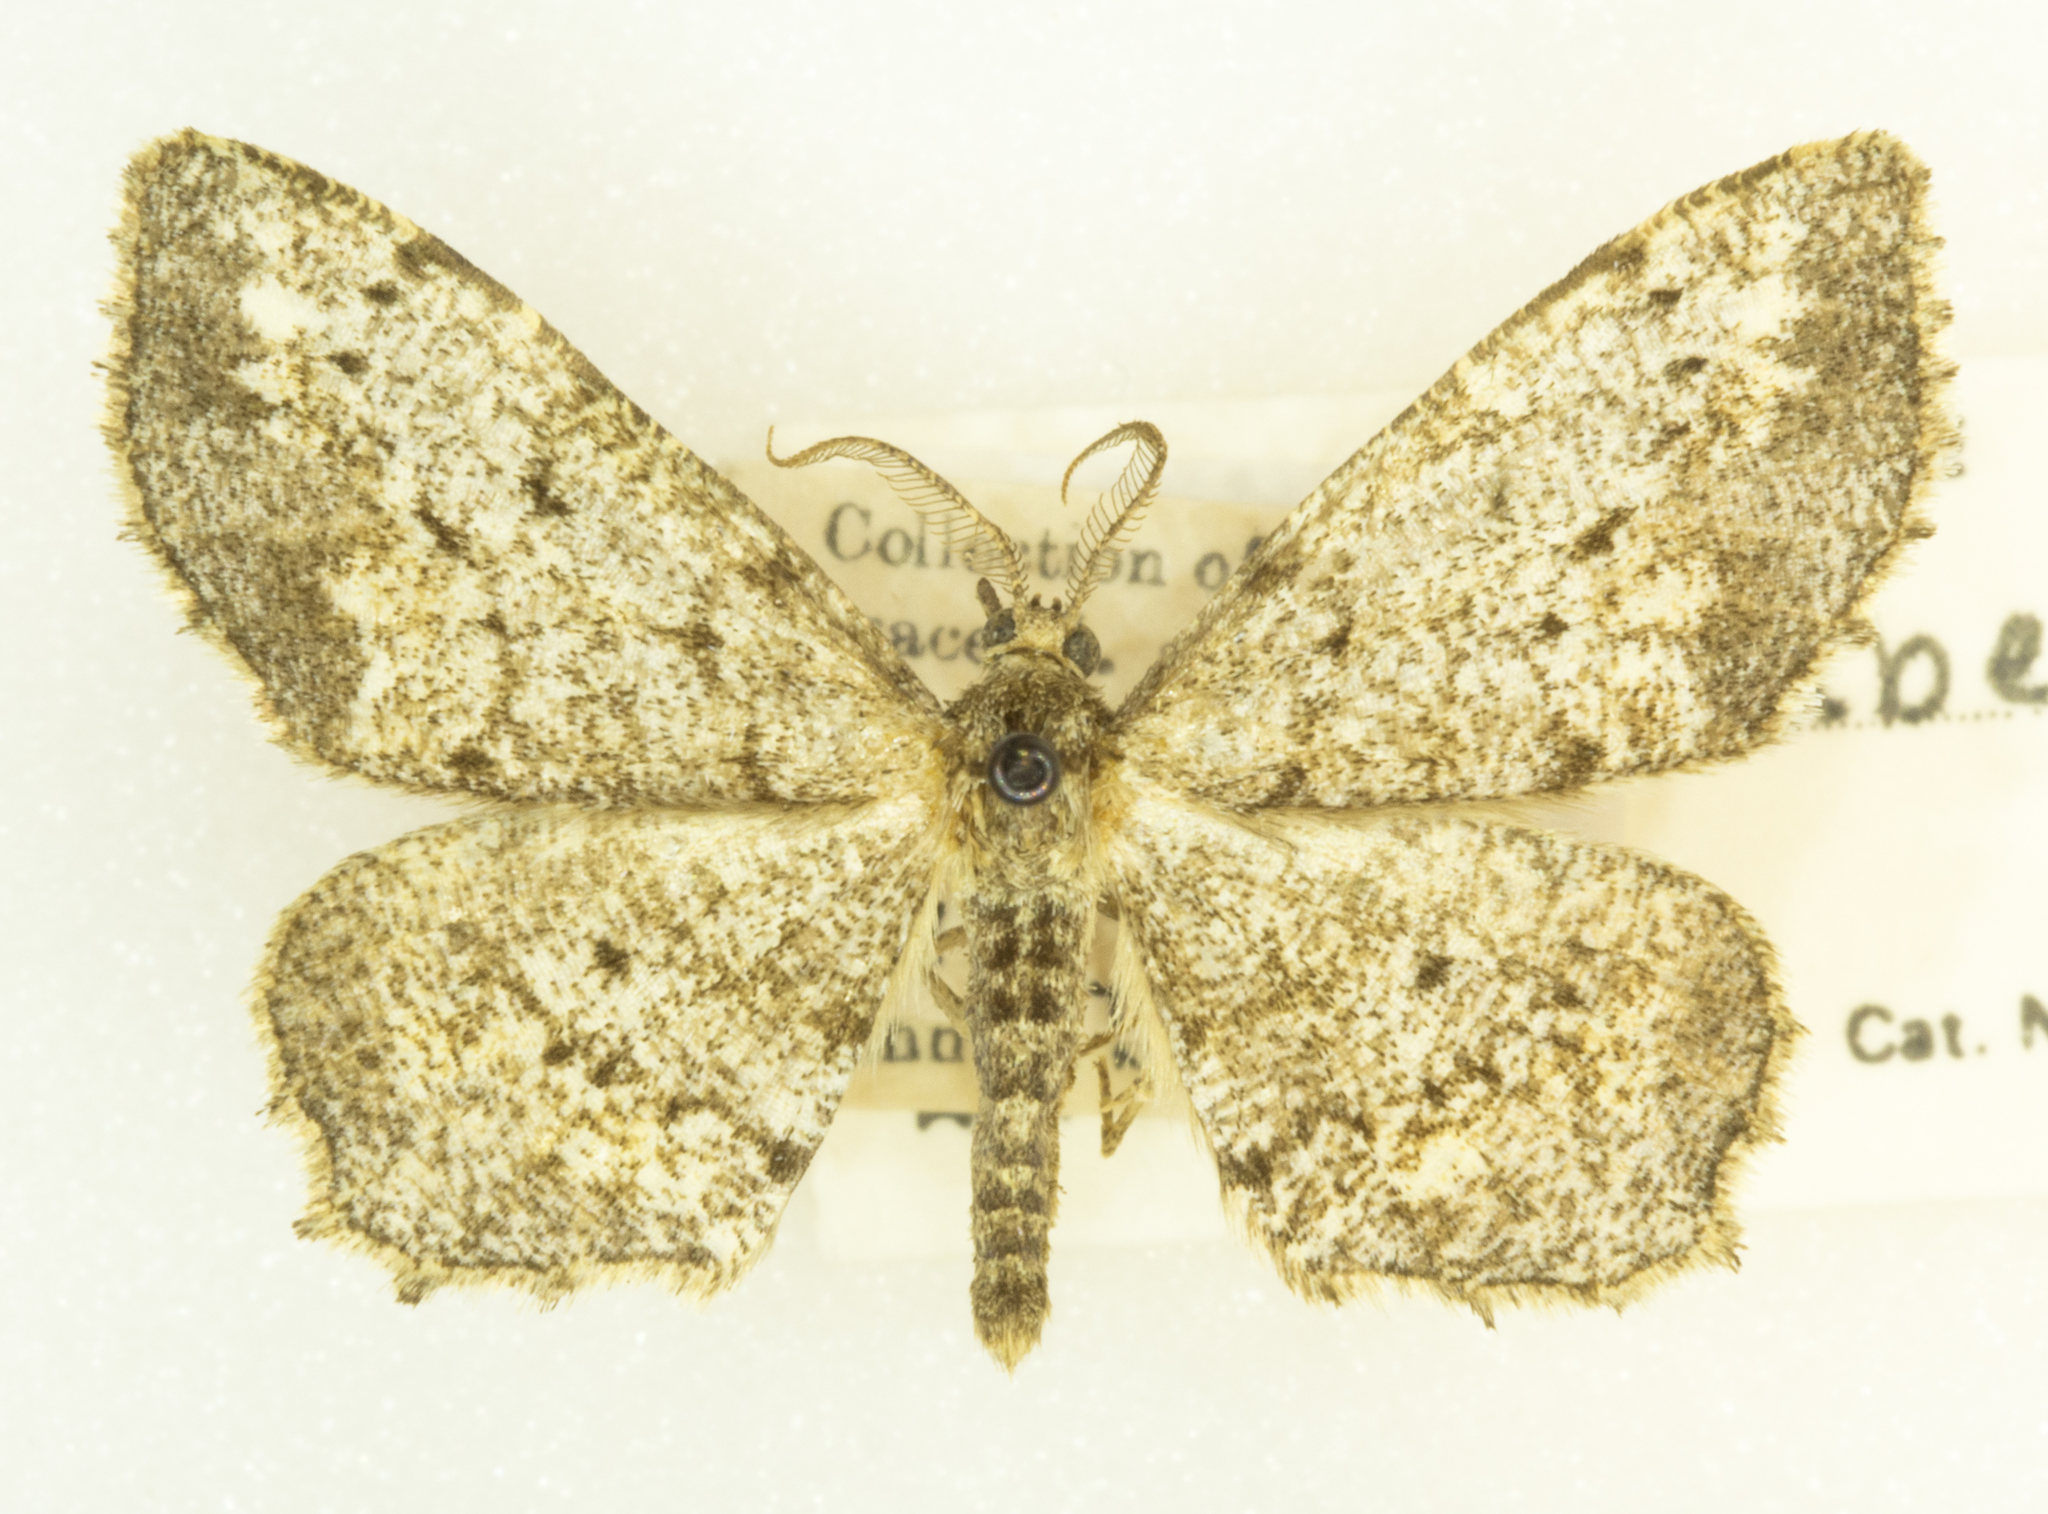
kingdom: Animalia
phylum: Arthropoda
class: Insecta
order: Lepidoptera
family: Geometridae
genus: Hypagyrtis
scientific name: Hypagyrtis unipunctata
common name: One-spotted variant
